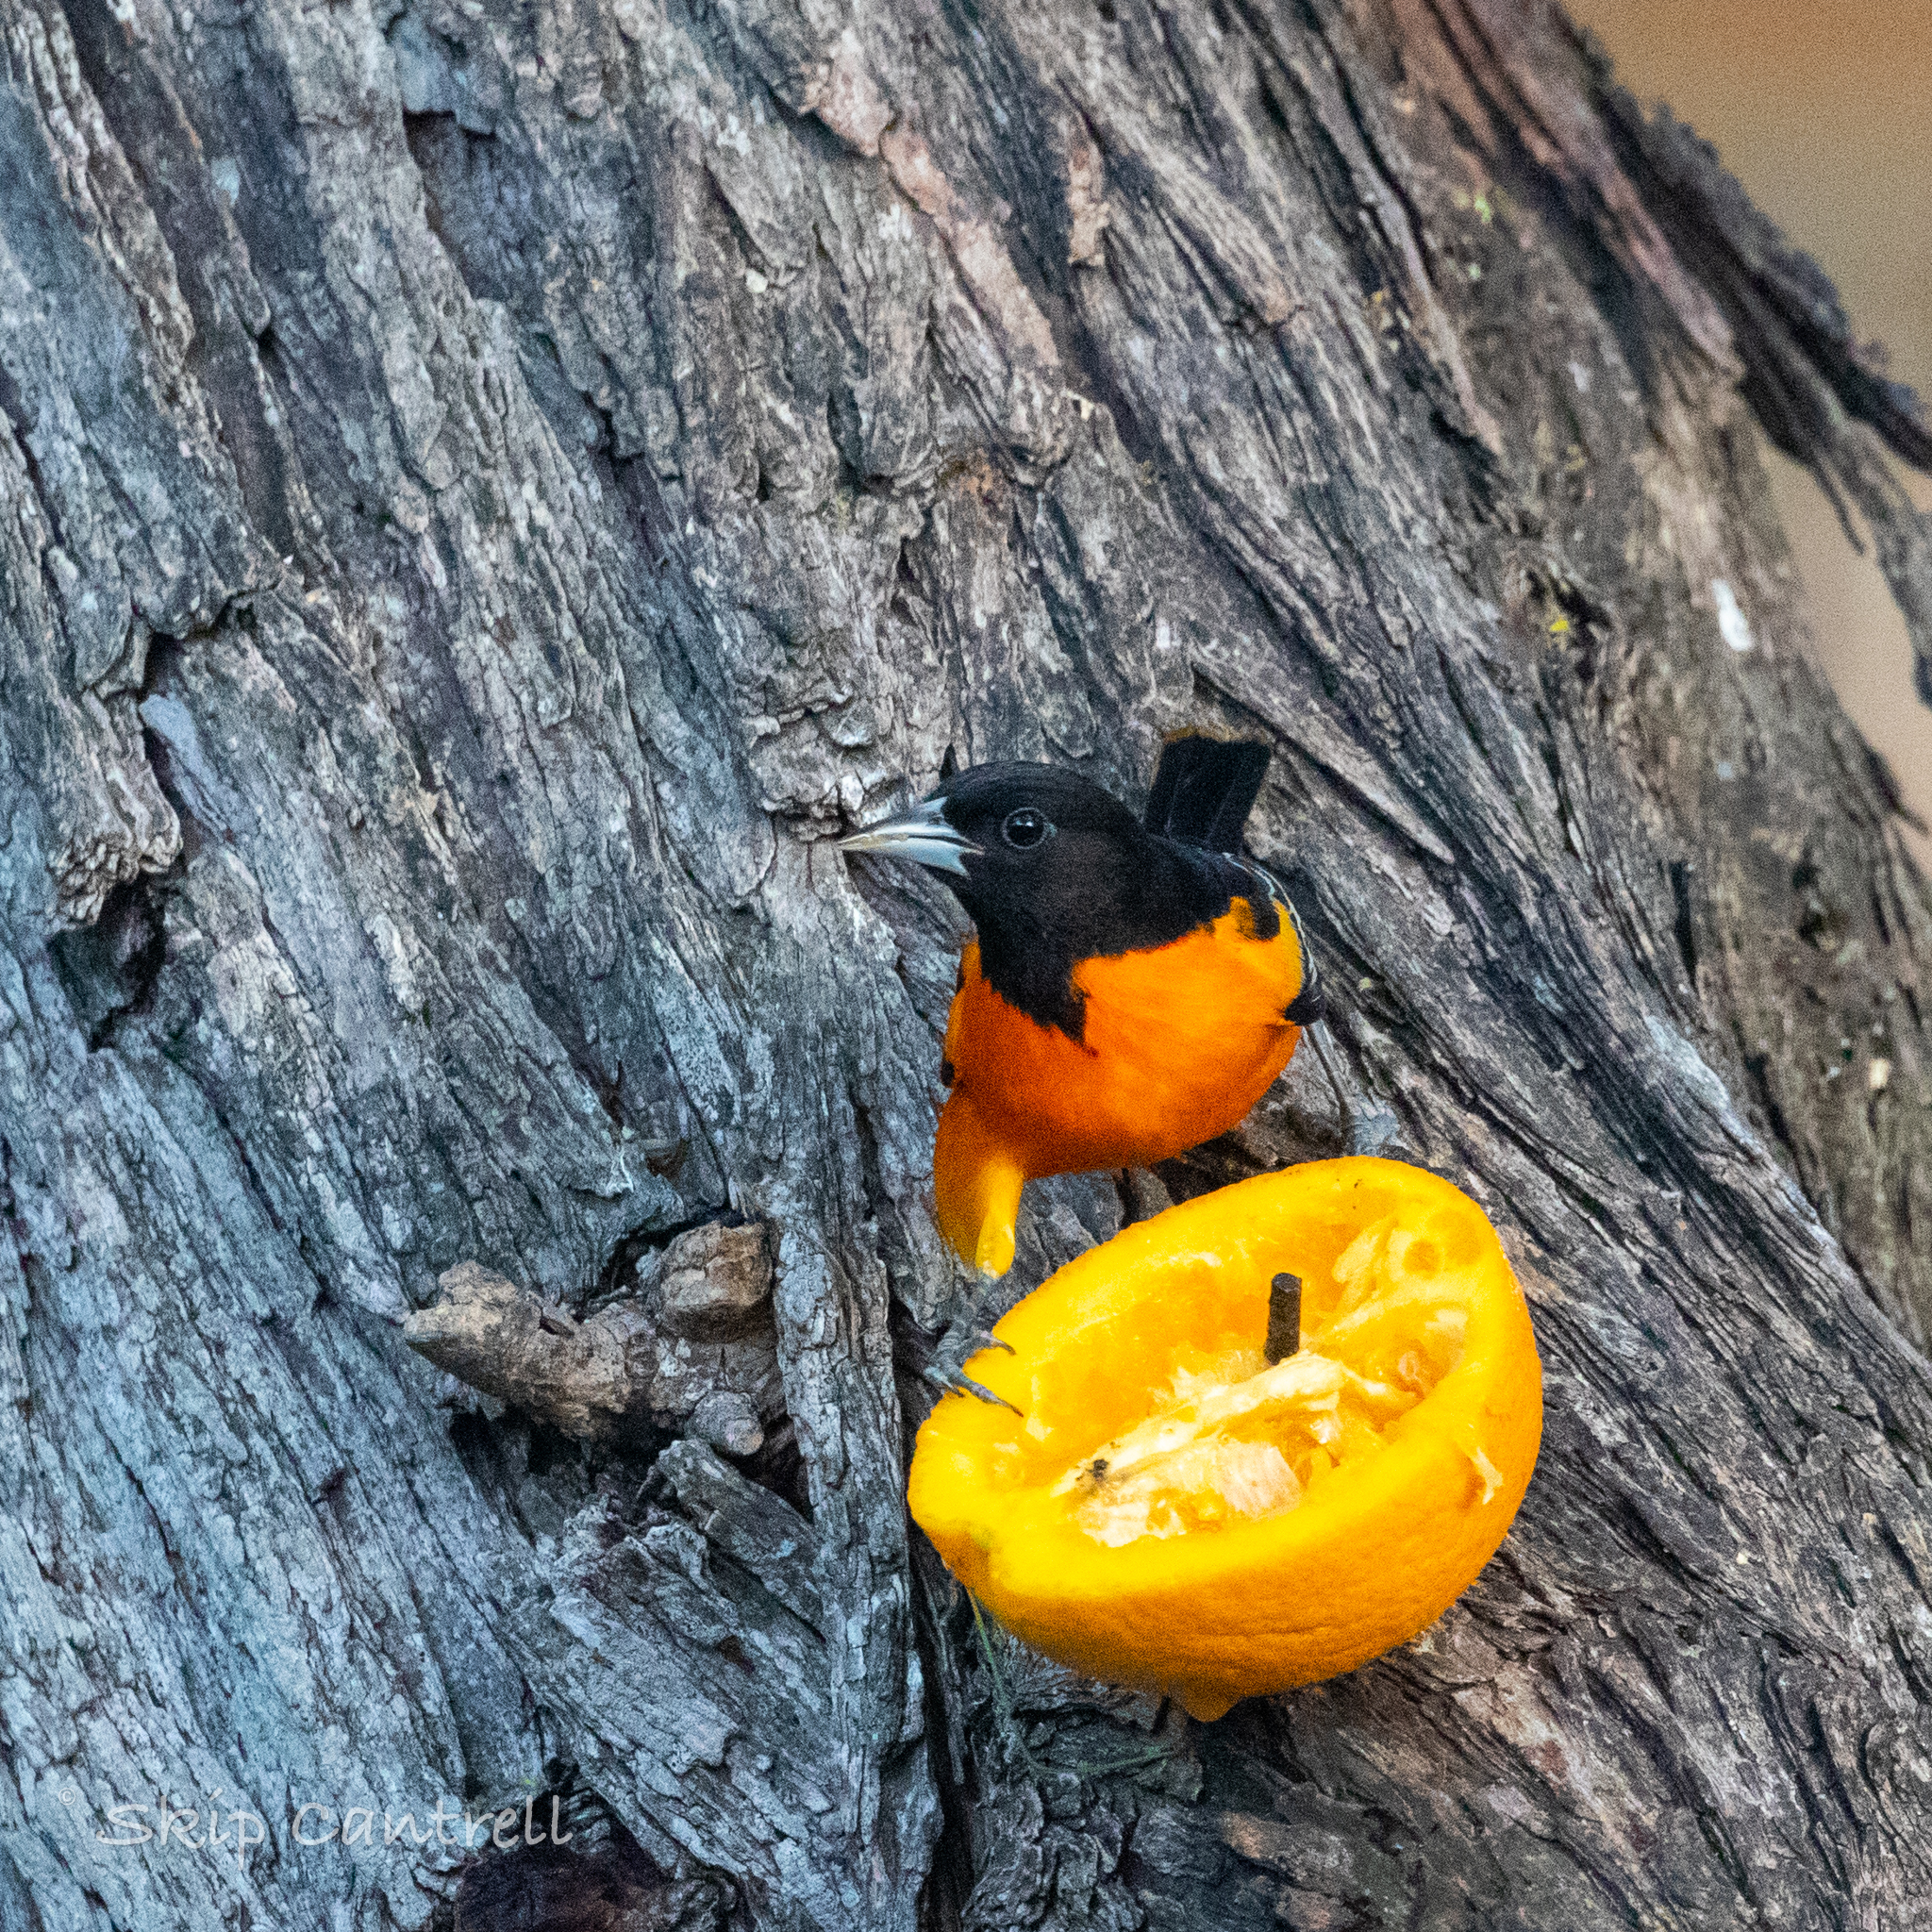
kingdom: Animalia
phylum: Chordata
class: Aves
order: Passeriformes
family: Icteridae
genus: Icterus
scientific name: Icterus galbula
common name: Baltimore oriole
